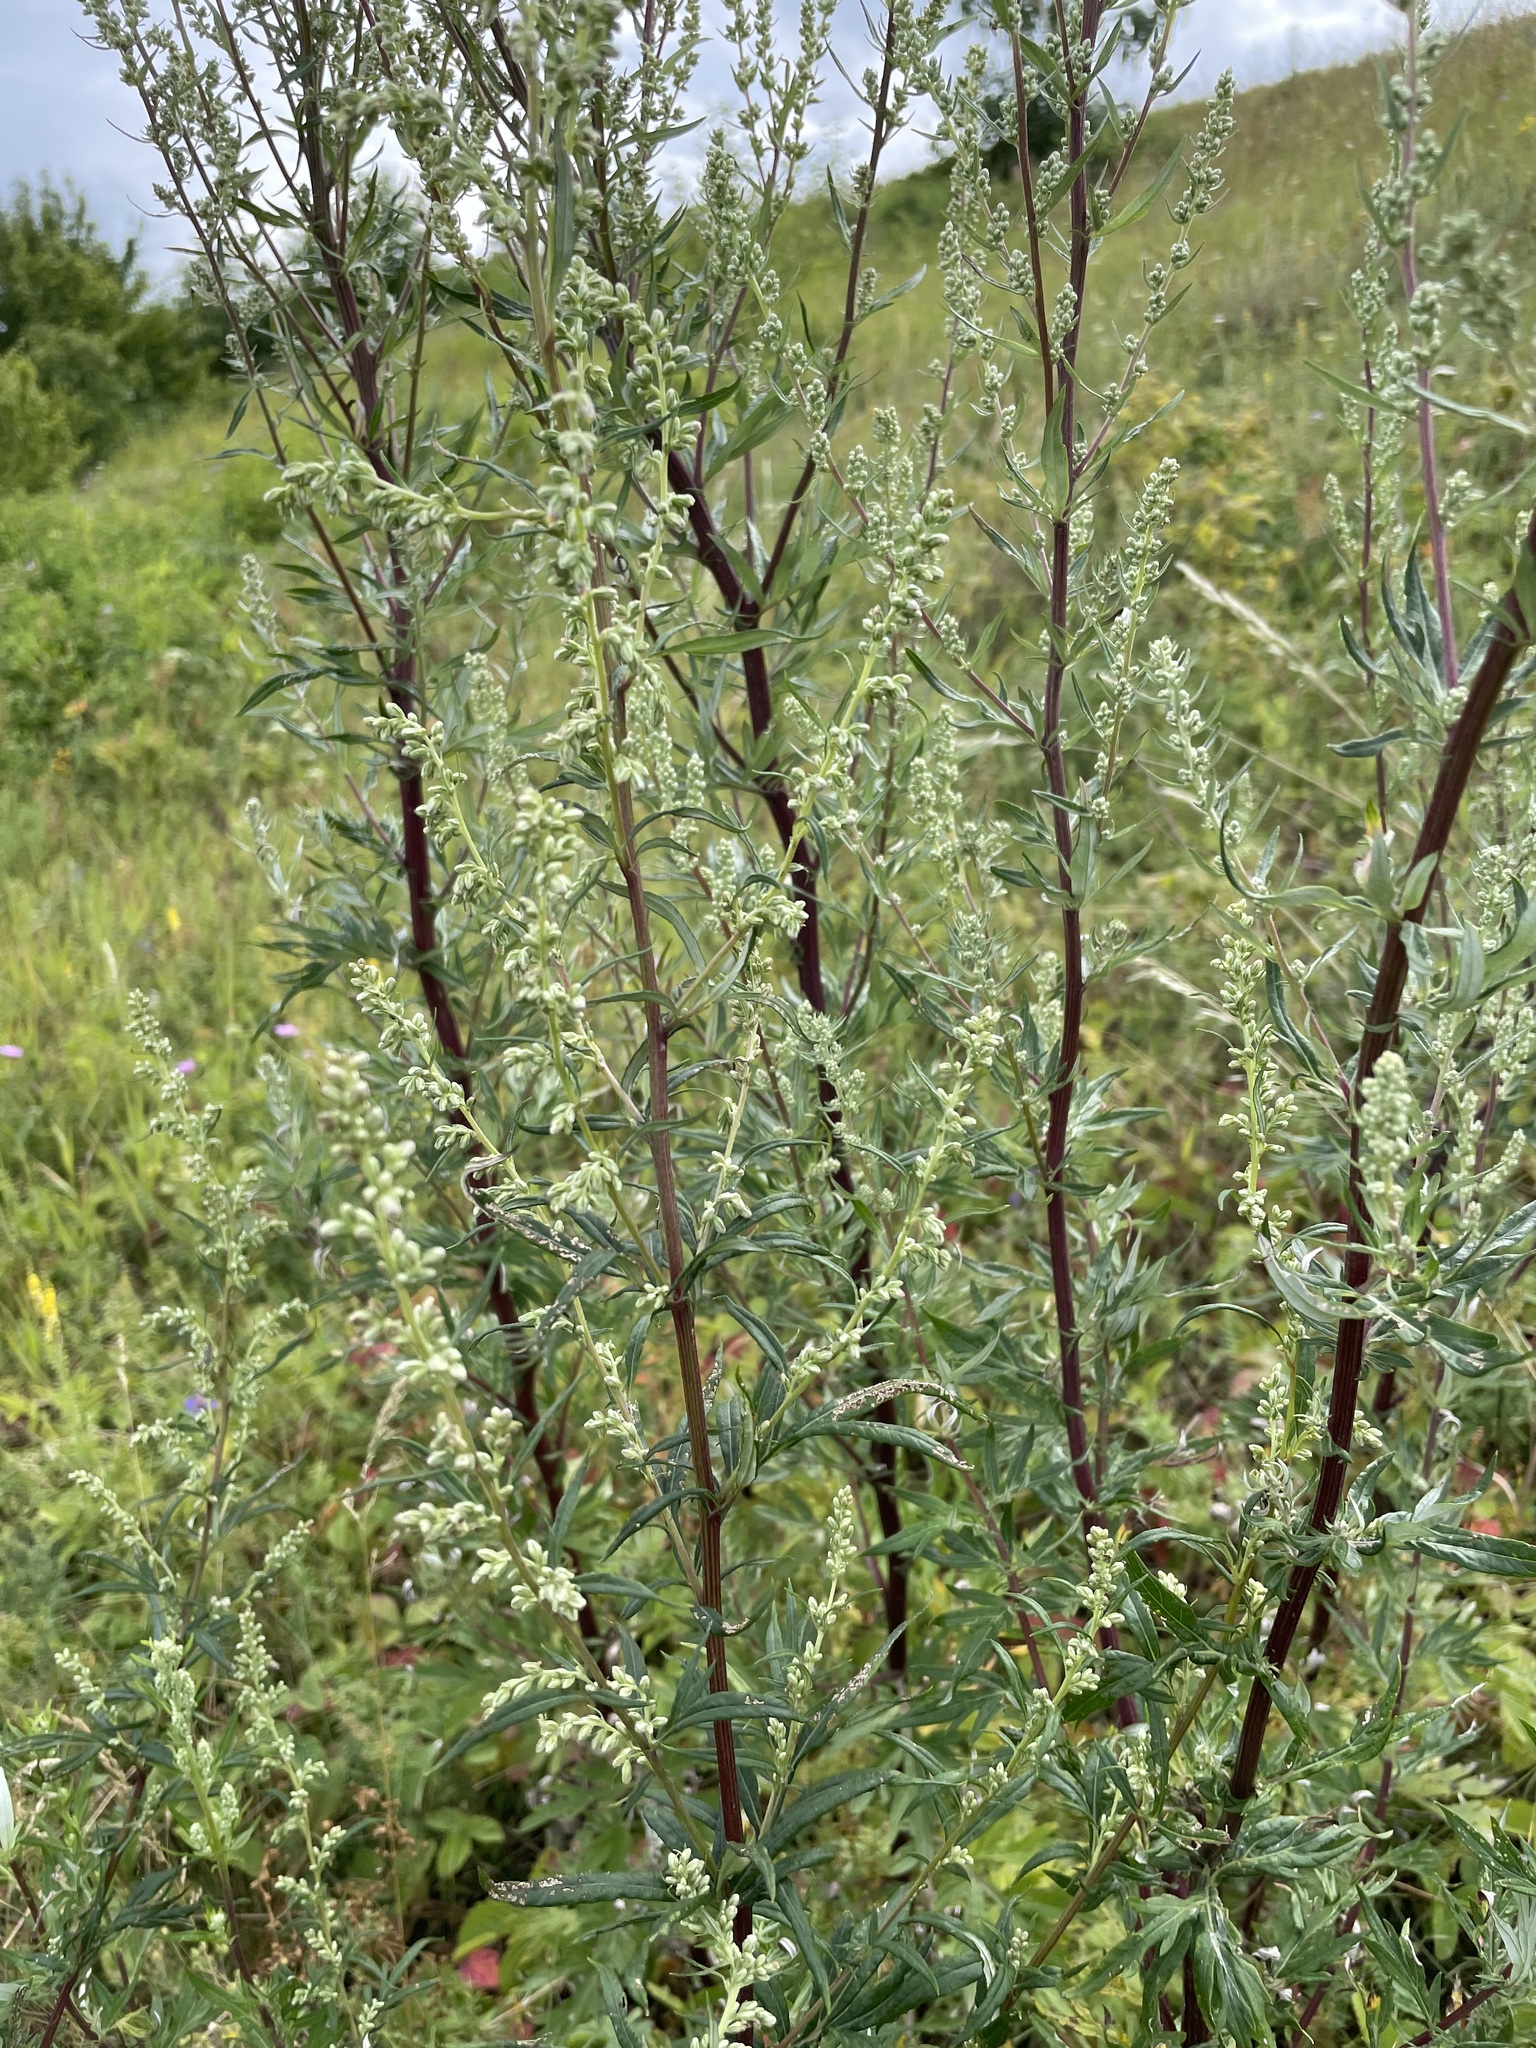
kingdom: Plantae
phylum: Tracheophyta
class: Magnoliopsida
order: Asterales
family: Asteraceae
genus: Artemisia
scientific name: Artemisia vulgaris
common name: Mugwort
